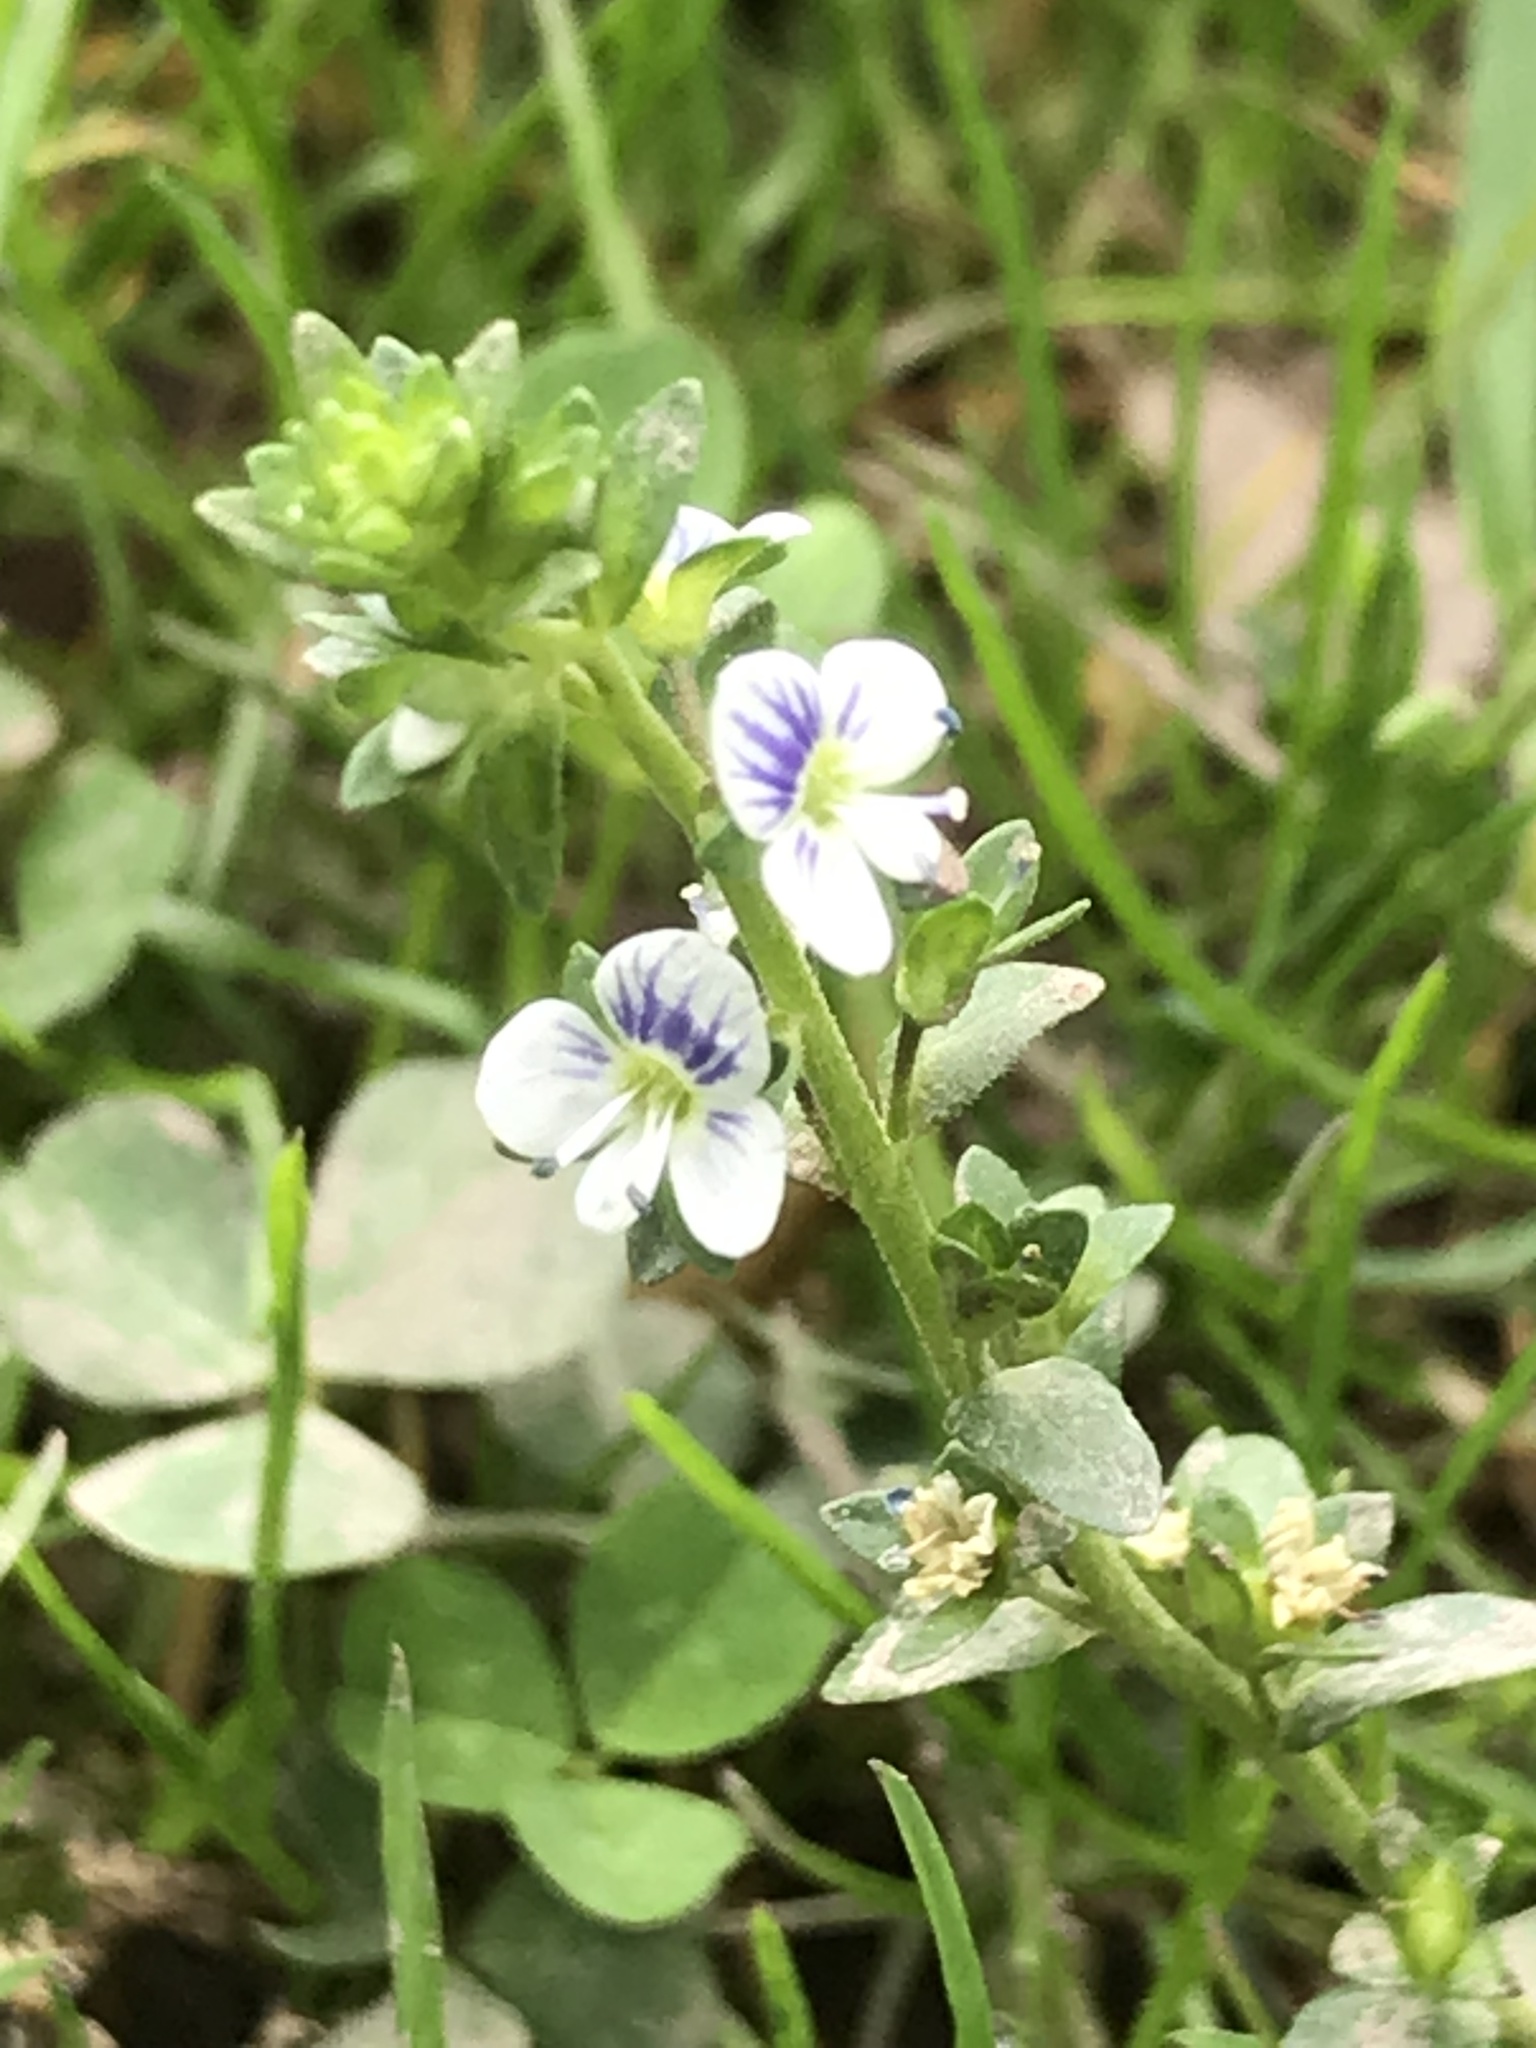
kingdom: Plantae
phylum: Tracheophyta
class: Magnoliopsida
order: Lamiales
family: Plantaginaceae
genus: Veronica
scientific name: Veronica serpyllifolia
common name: Thyme-leaved speedwell
